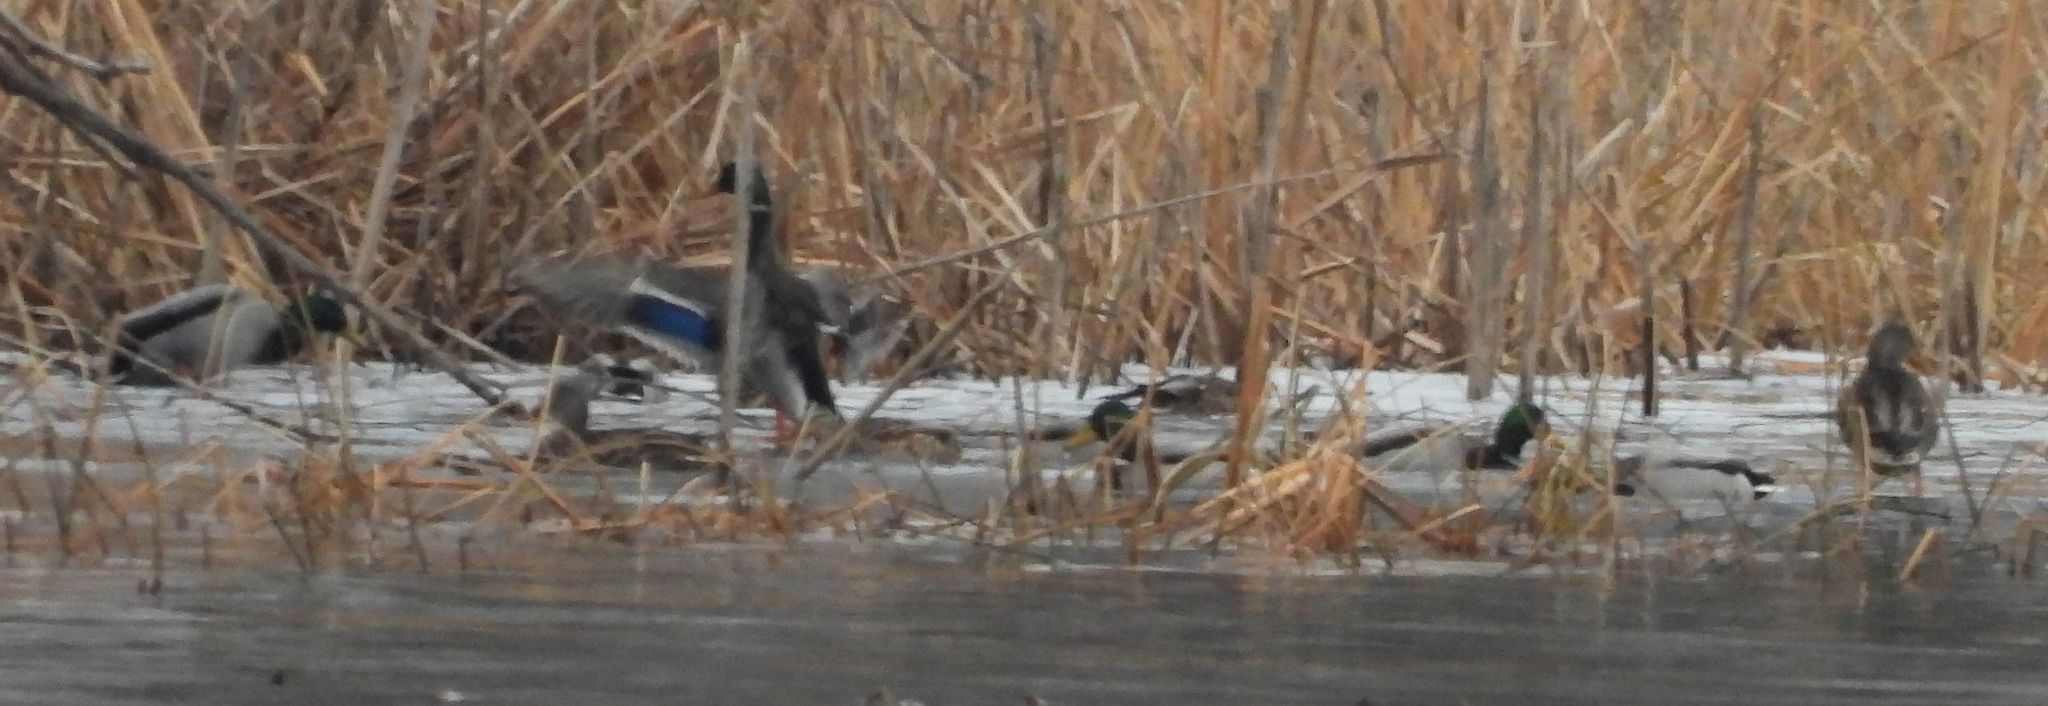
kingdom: Animalia
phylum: Chordata
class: Aves
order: Anseriformes
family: Anatidae
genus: Anas
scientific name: Anas platyrhynchos
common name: Mallard
